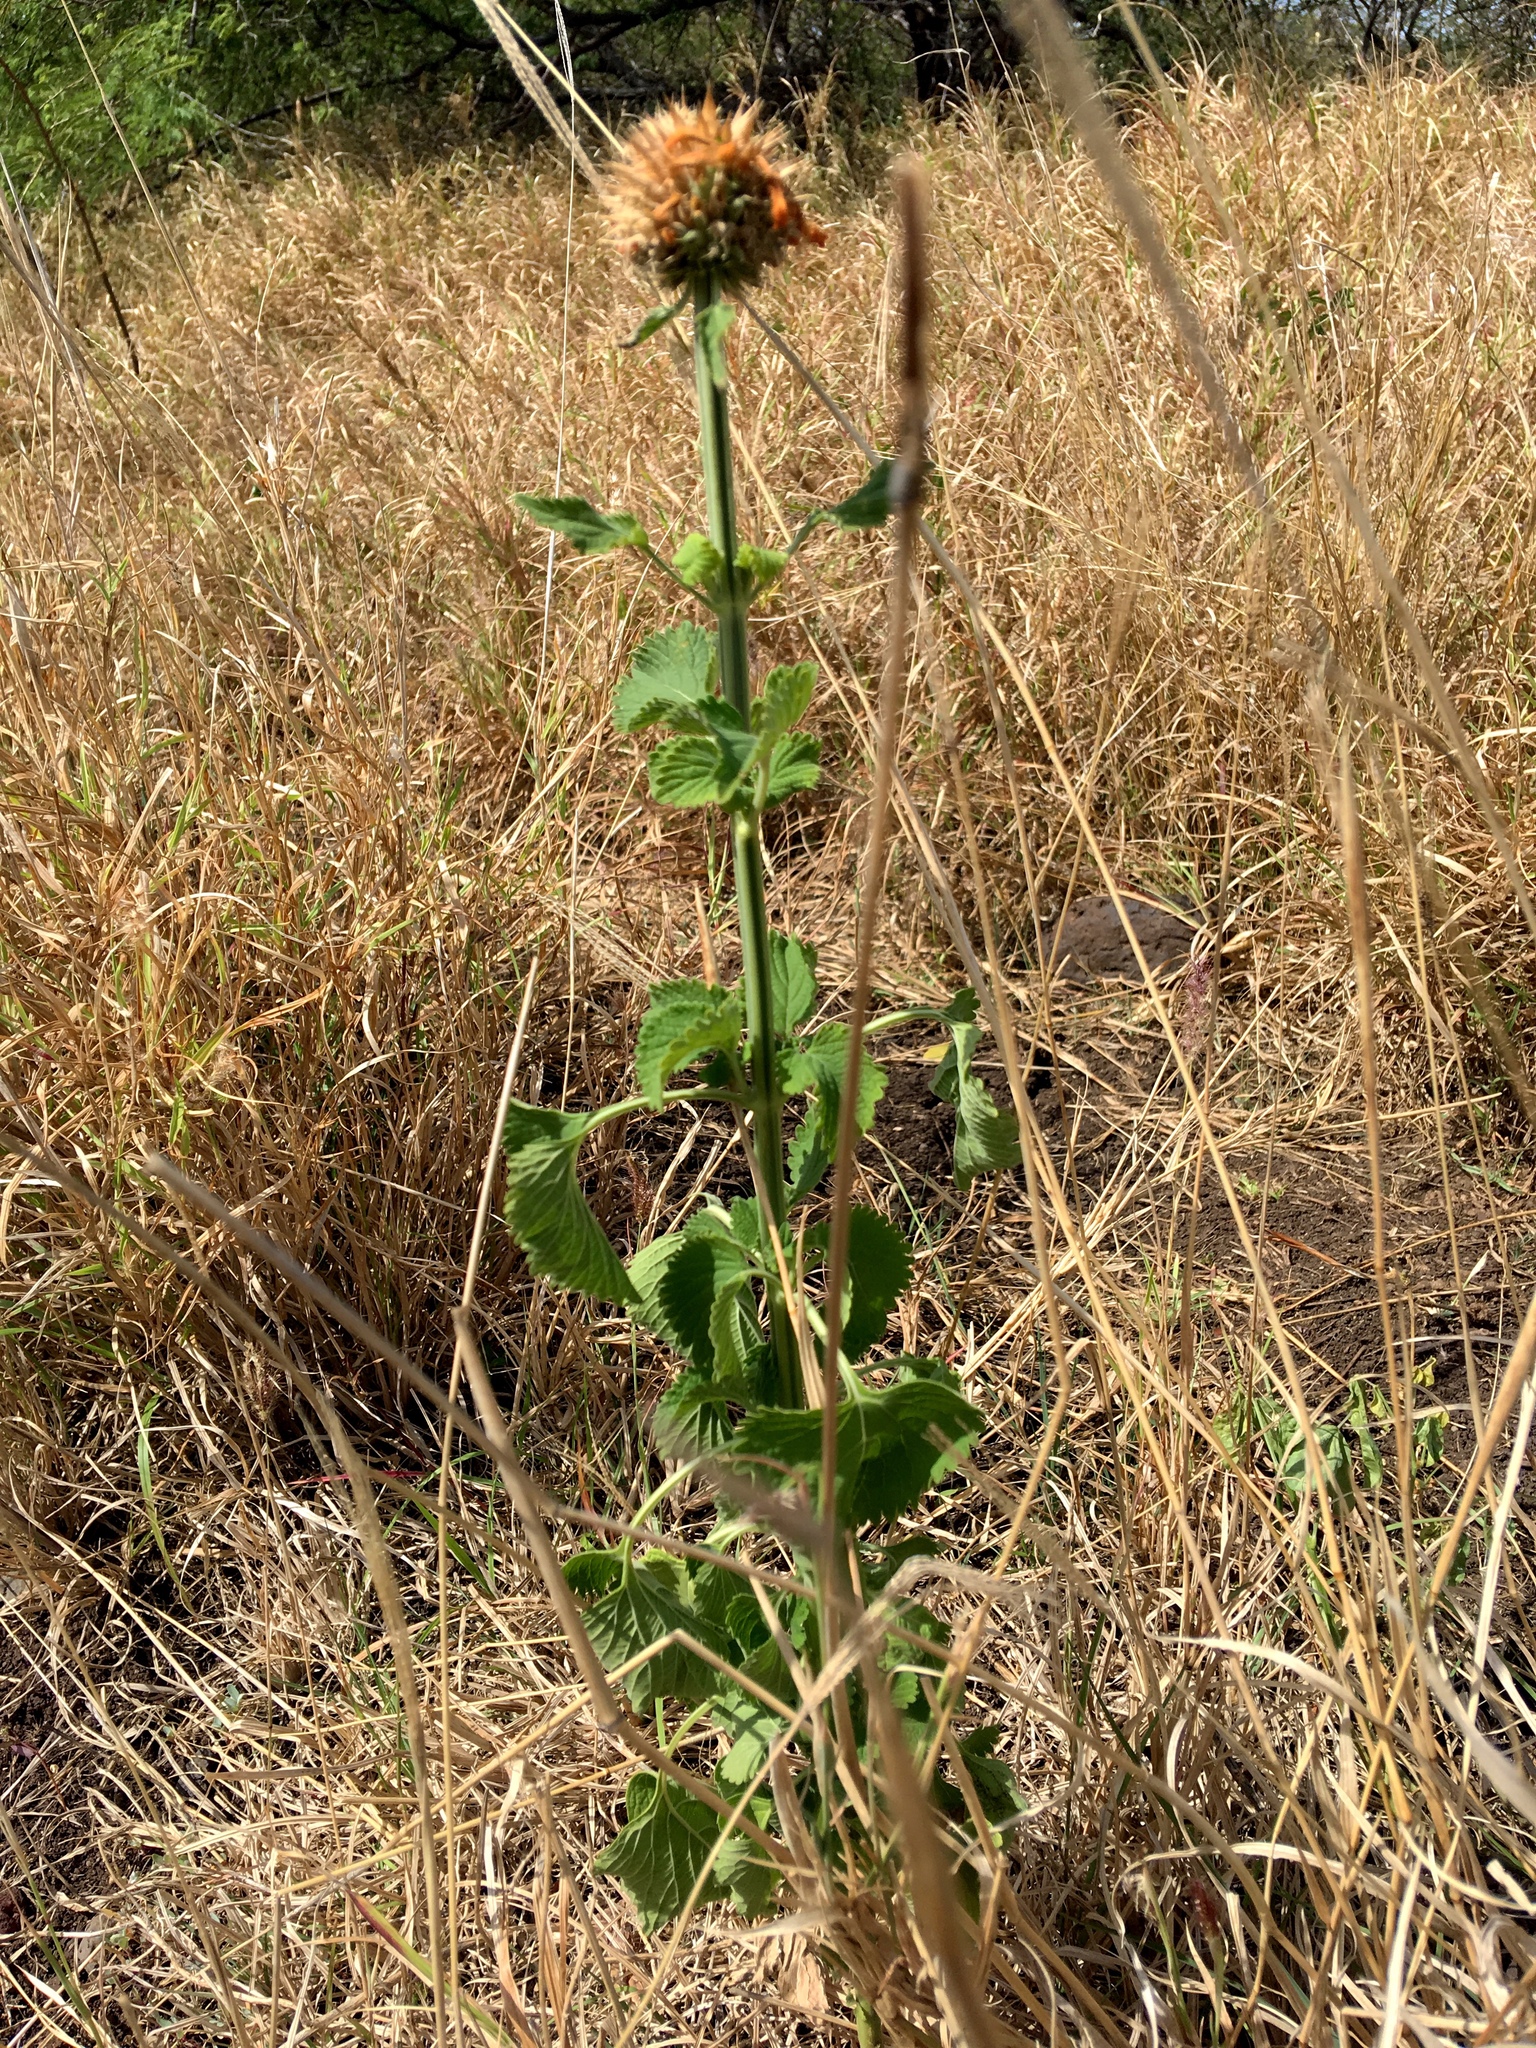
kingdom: Plantae
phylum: Tracheophyta
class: Magnoliopsida
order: Lamiales
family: Lamiaceae
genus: Leonotis
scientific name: Leonotis nepetifolia
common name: Christmas candlestick
